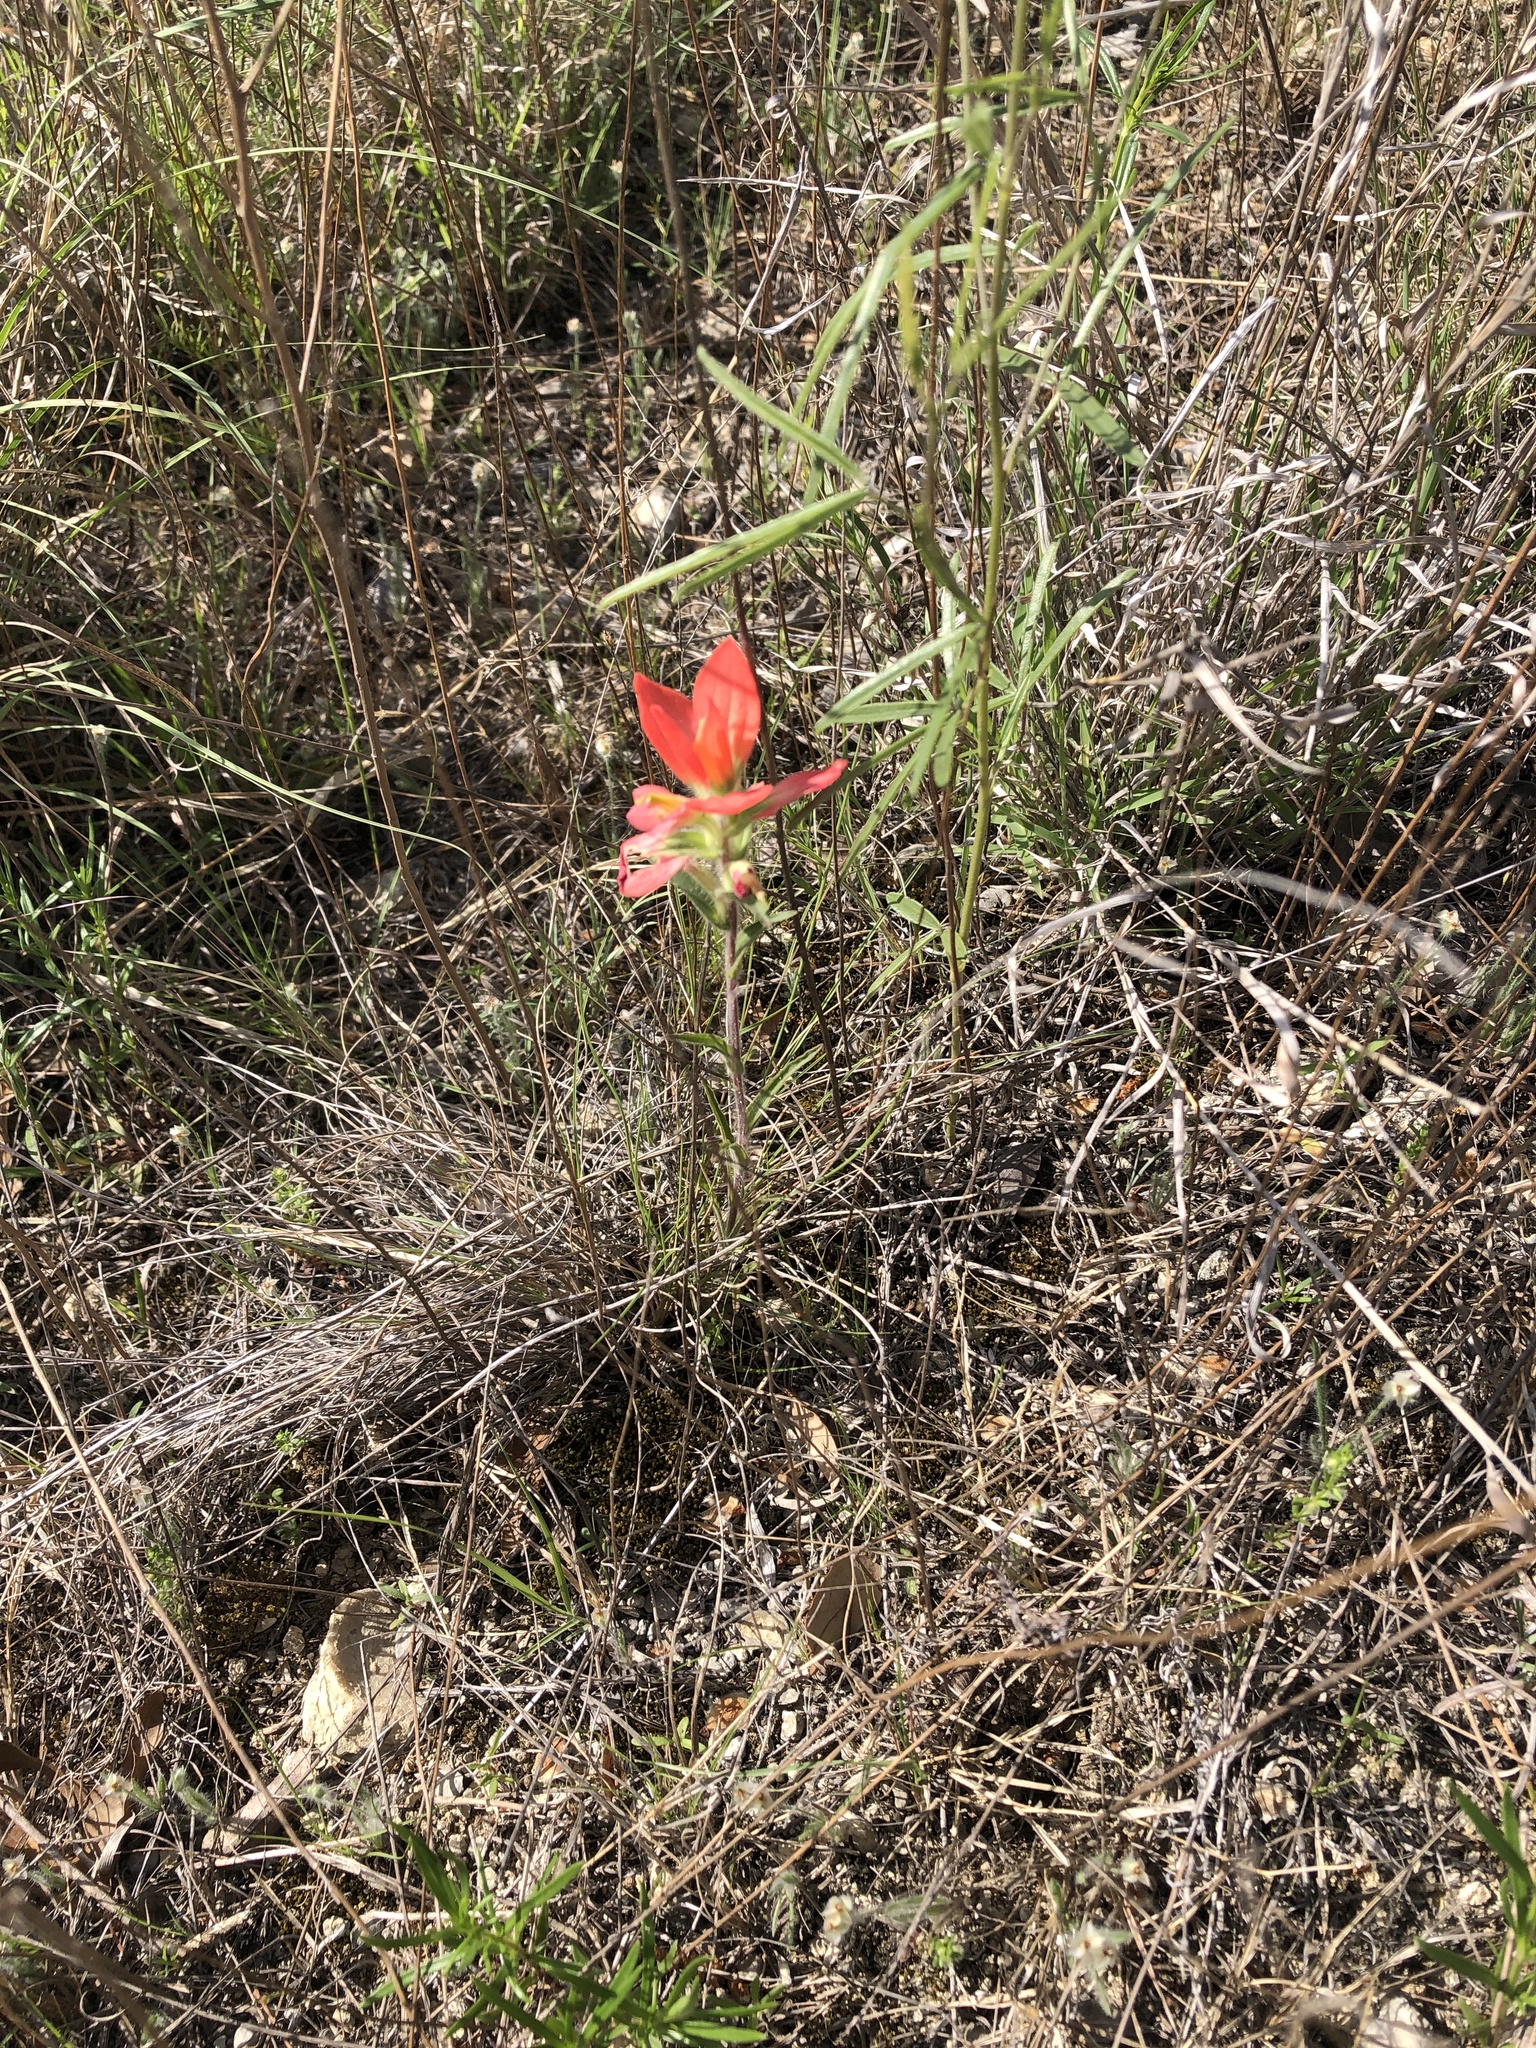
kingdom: Plantae
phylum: Tracheophyta
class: Magnoliopsida
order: Lamiales
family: Orobanchaceae
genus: Castilleja
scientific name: Castilleja indivisa
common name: Texas paintbrush
